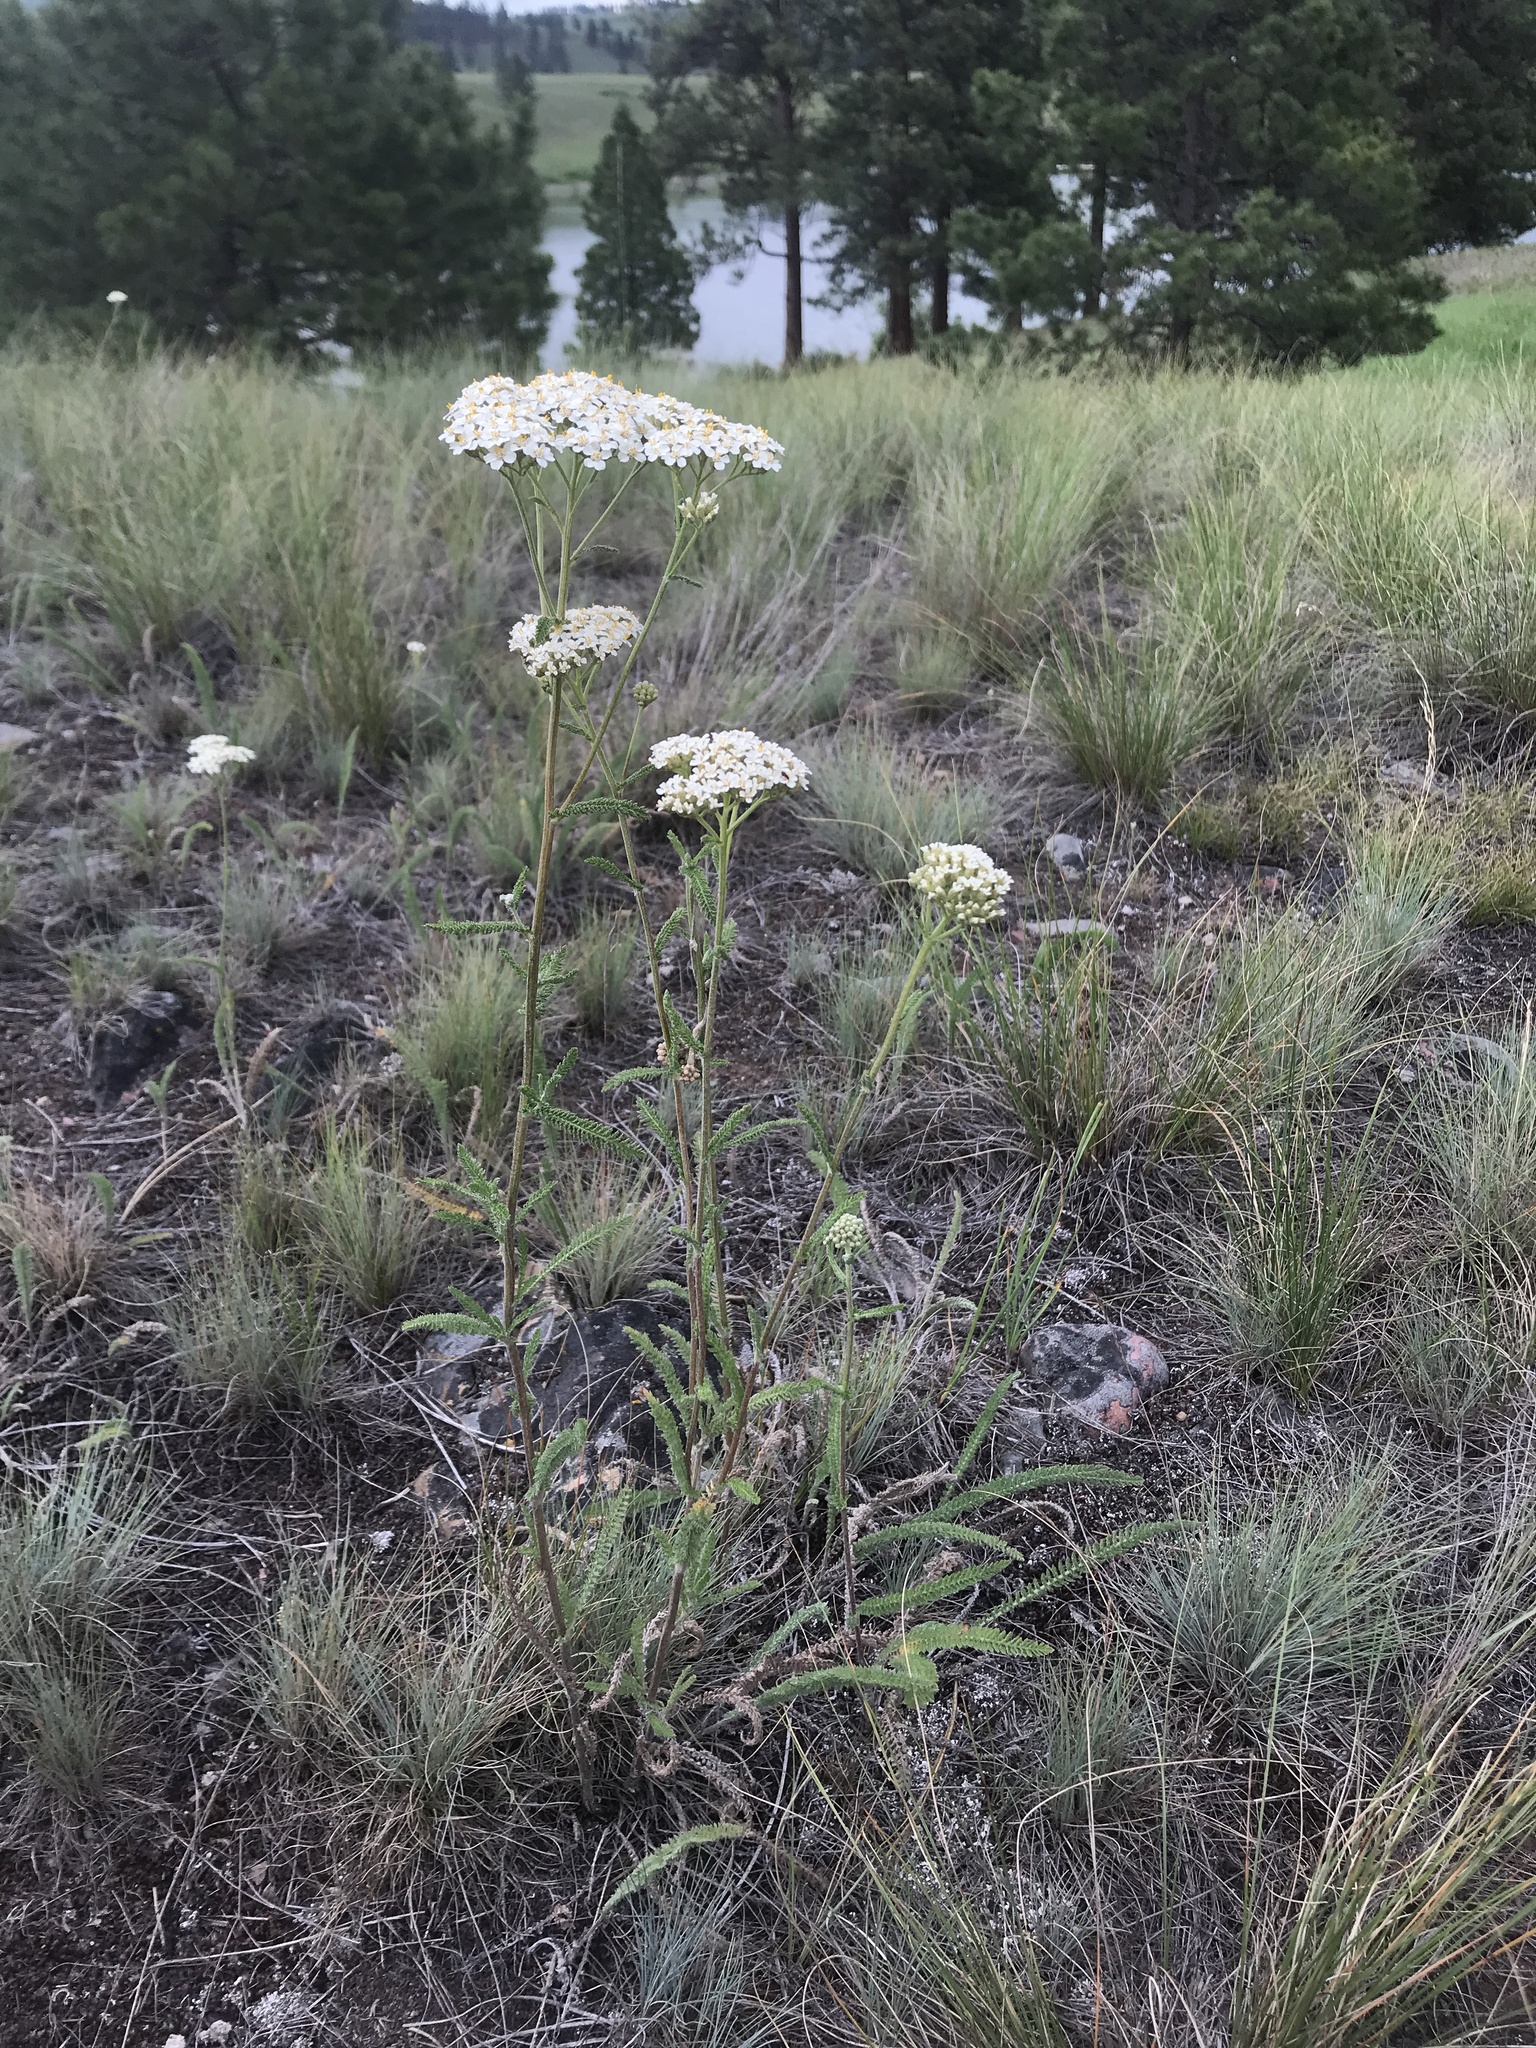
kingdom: Plantae
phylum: Tracheophyta
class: Magnoliopsida
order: Asterales
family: Asteraceae
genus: Achillea
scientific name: Achillea millefolium
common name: Yarrow
